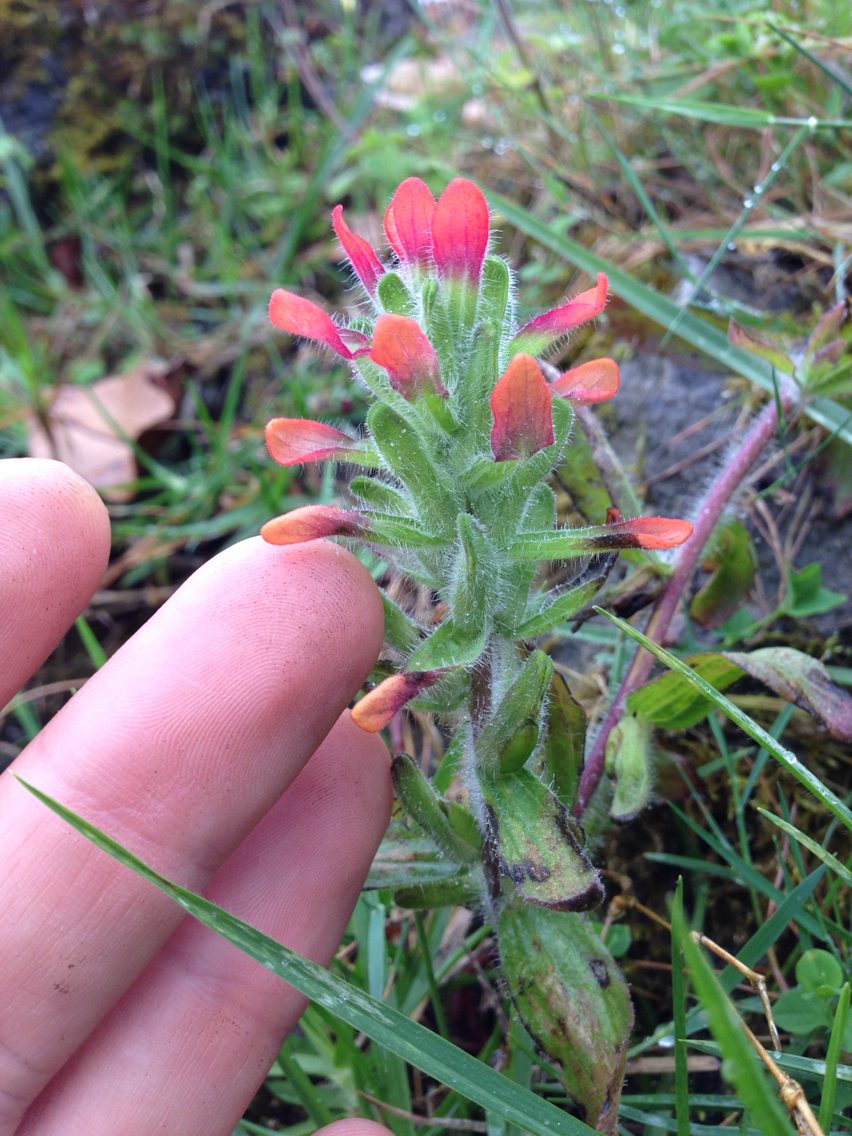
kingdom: Plantae
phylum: Tracheophyta
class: Magnoliopsida
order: Lamiales
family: Orobanchaceae
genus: Castilleja
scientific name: Castilleja arvensis
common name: Indian paintbrush
